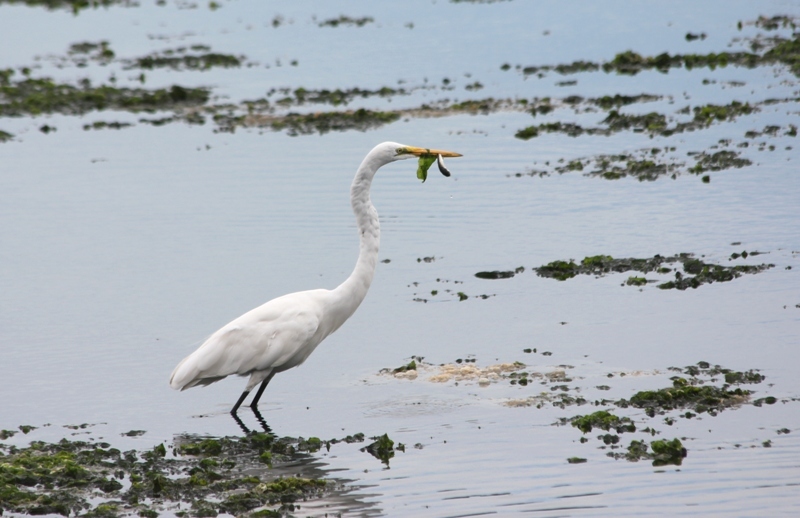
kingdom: Animalia
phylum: Chordata
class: Aves
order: Pelecaniformes
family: Ardeidae
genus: Ardea
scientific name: Ardea alba
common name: Great egret
